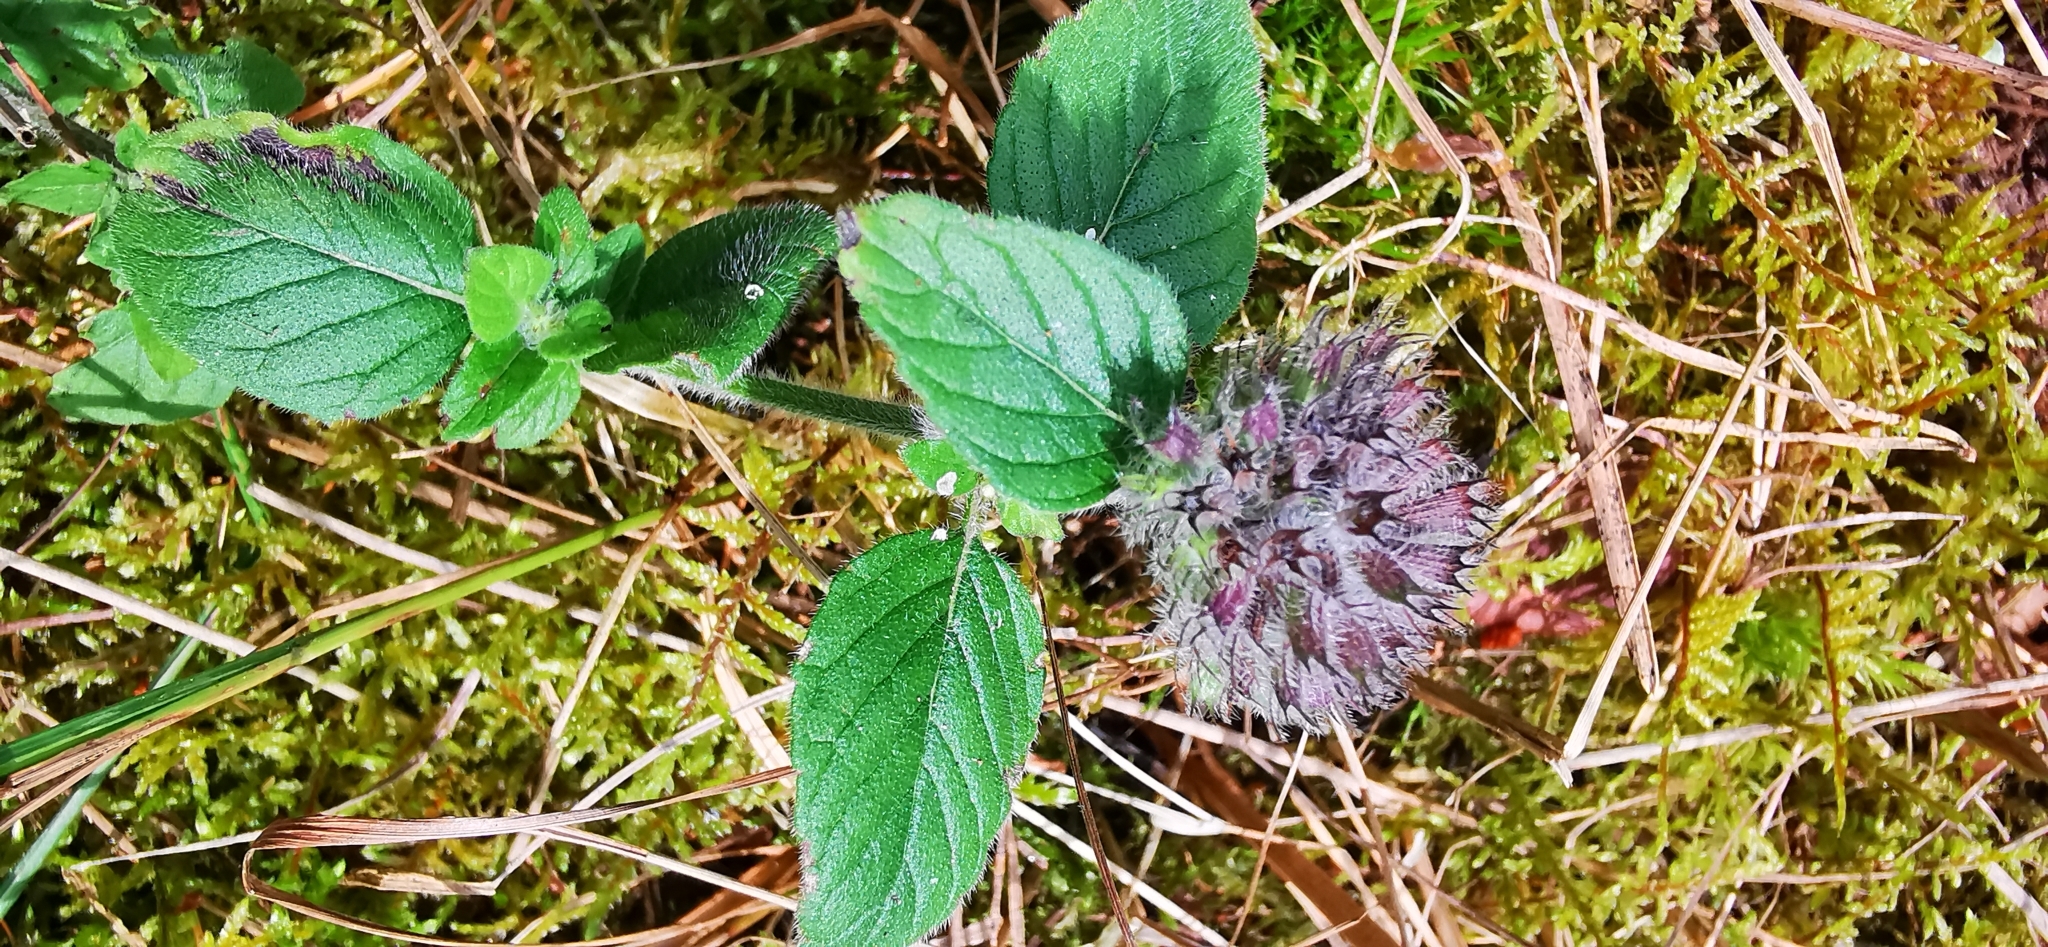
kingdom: Plantae
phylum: Tracheophyta
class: Magnoliopsida
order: Lamiales
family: Lamiaceae
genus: Clinopodium
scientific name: Clinopodium vulgare
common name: Wild basil
